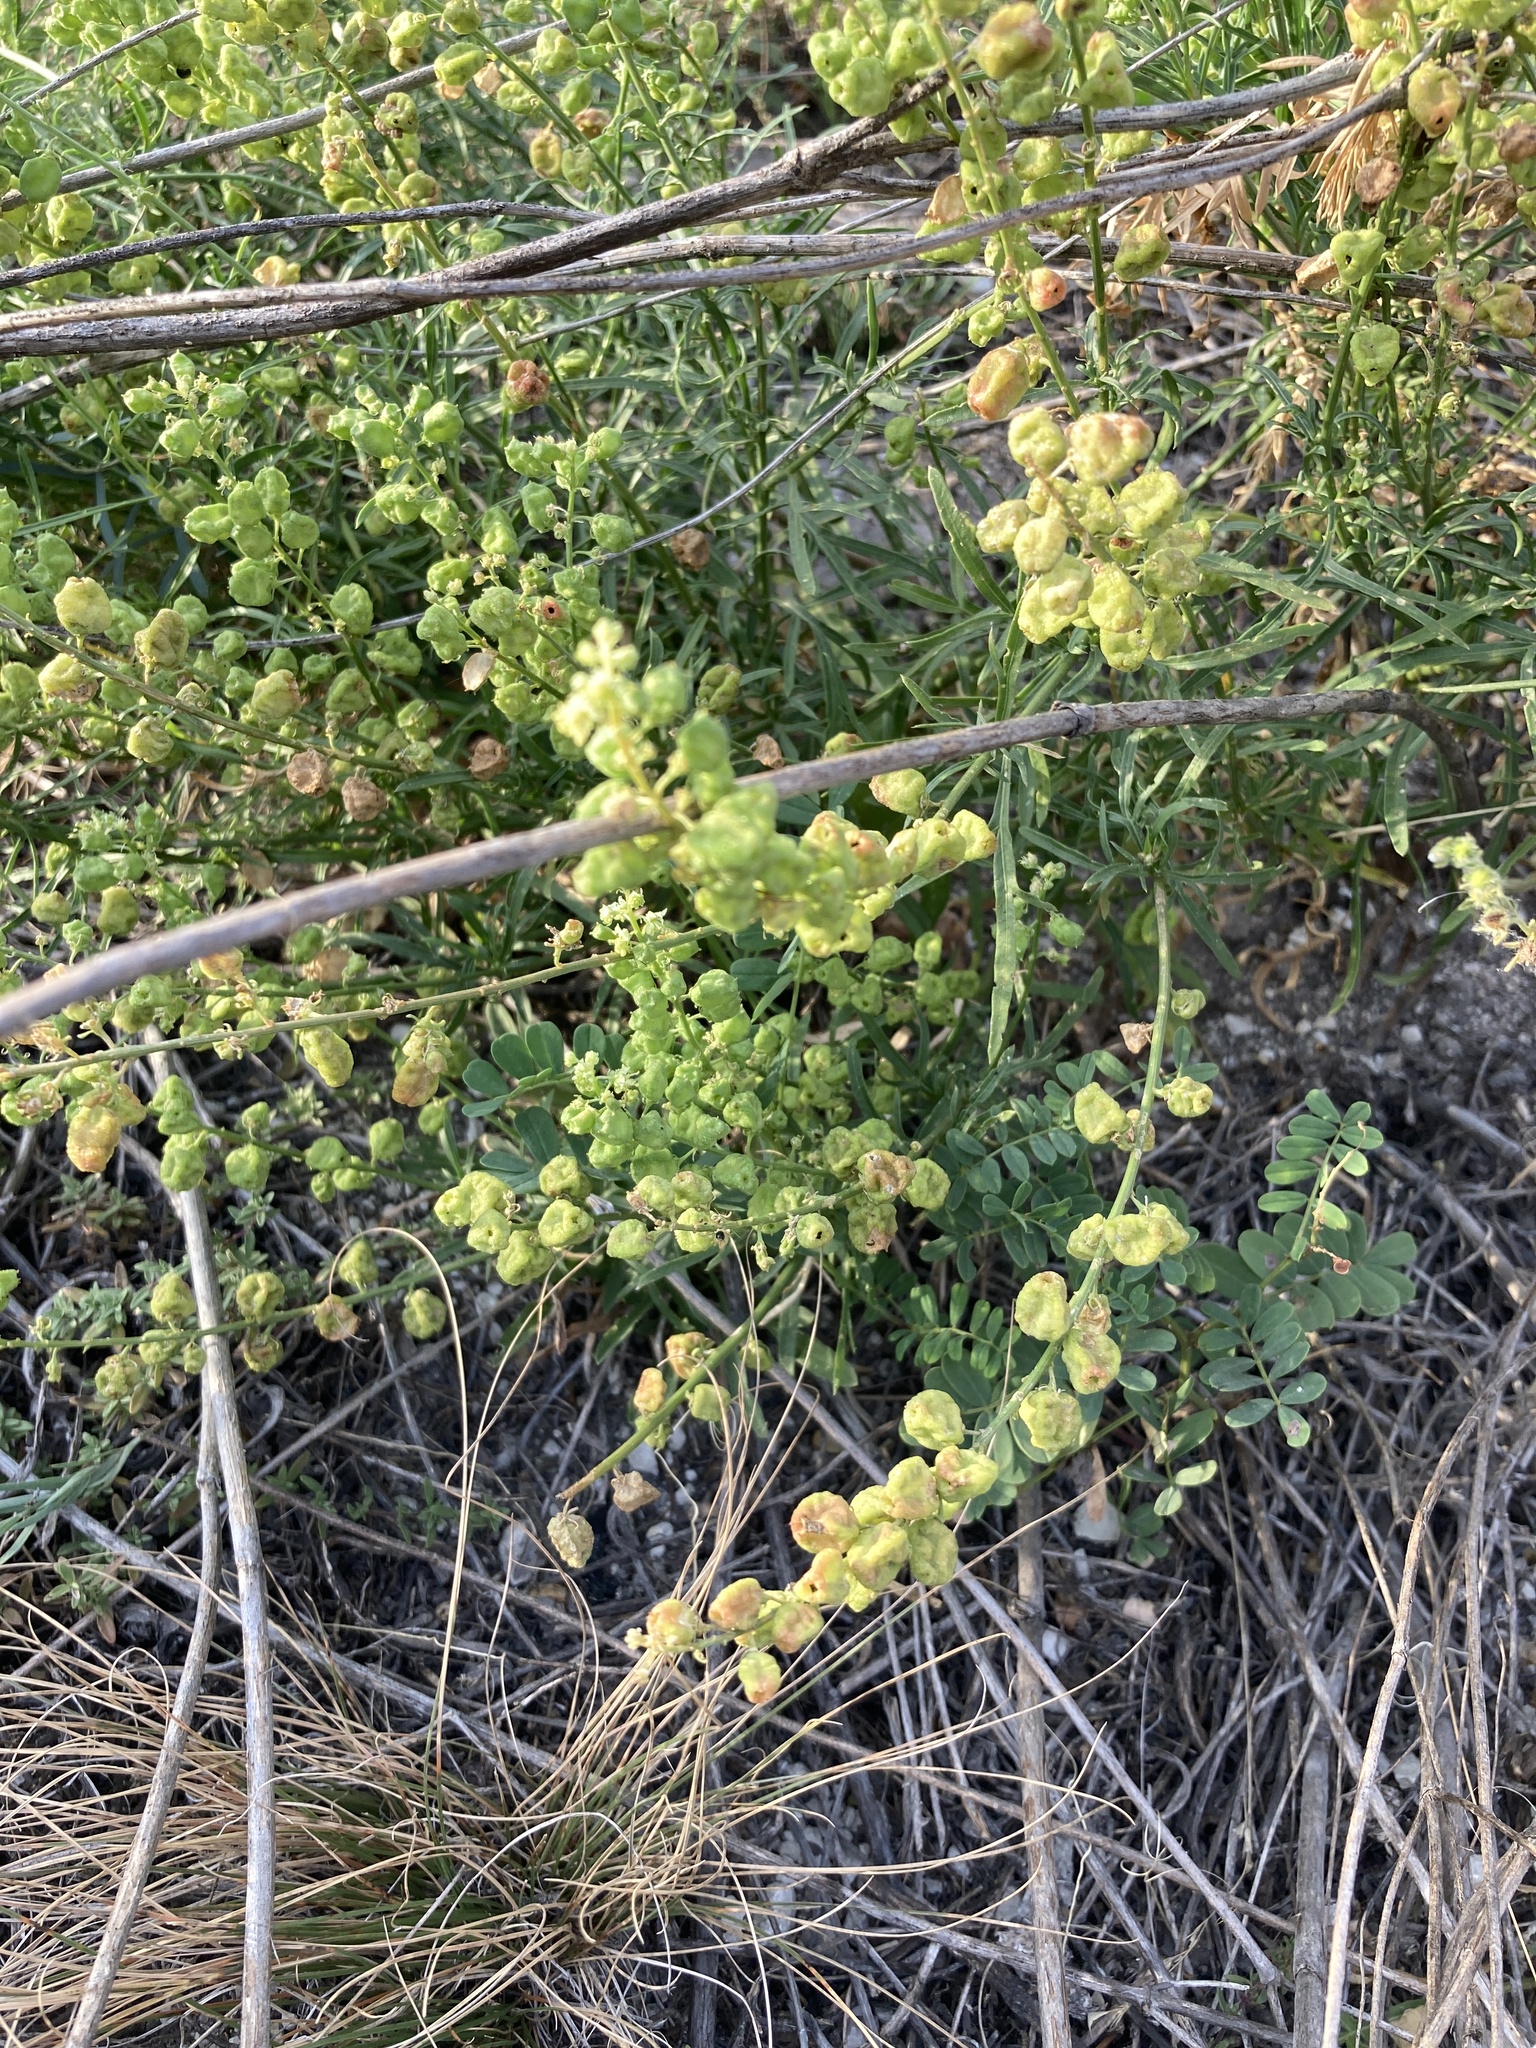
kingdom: Plantae
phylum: Tracheophyta
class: Magnoliopsida
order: Brassicales
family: Resedaceae
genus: Reseda
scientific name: Reseda lutea
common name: Wild mignonette
